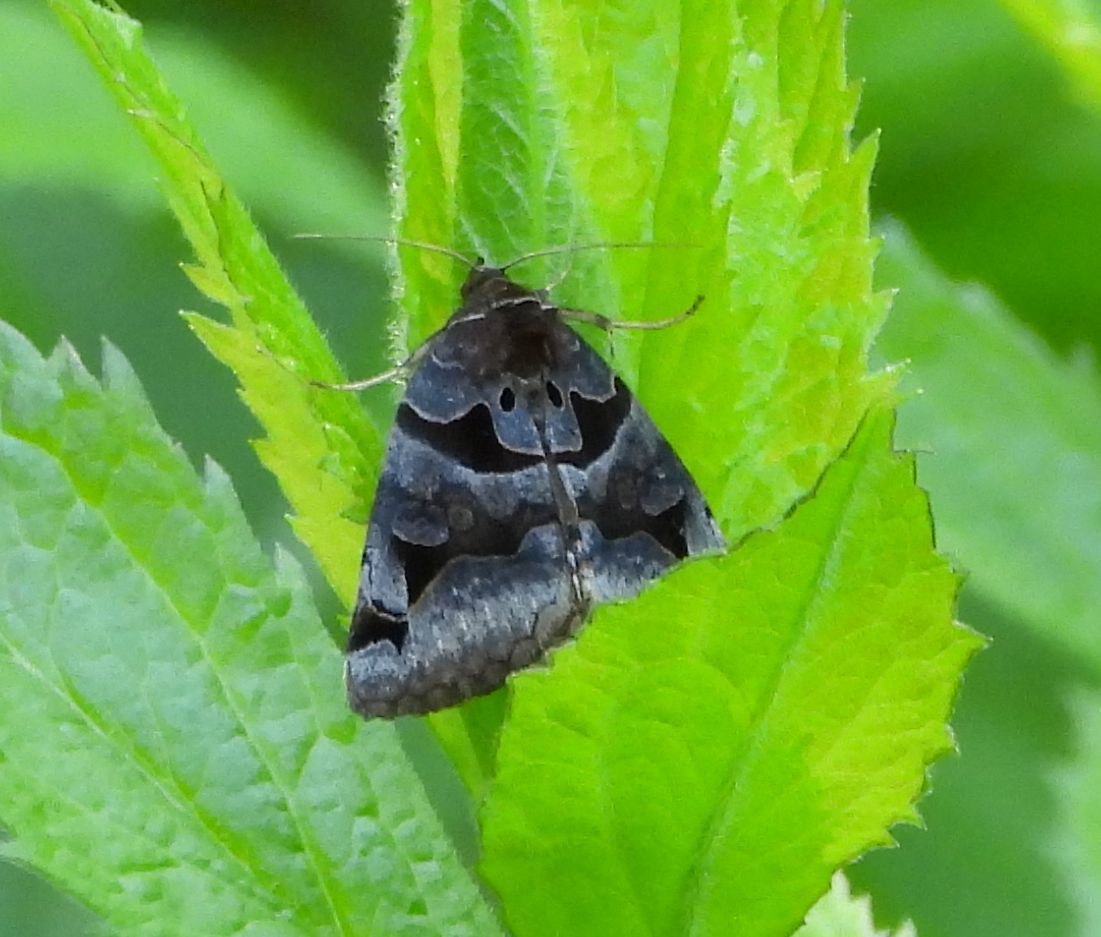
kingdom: Animalia
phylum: Arthropoda
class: Insecta
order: Lepidoptera
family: Erebidae
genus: Euclidia
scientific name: Euclidia cuspidea
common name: Toothed somberwing
